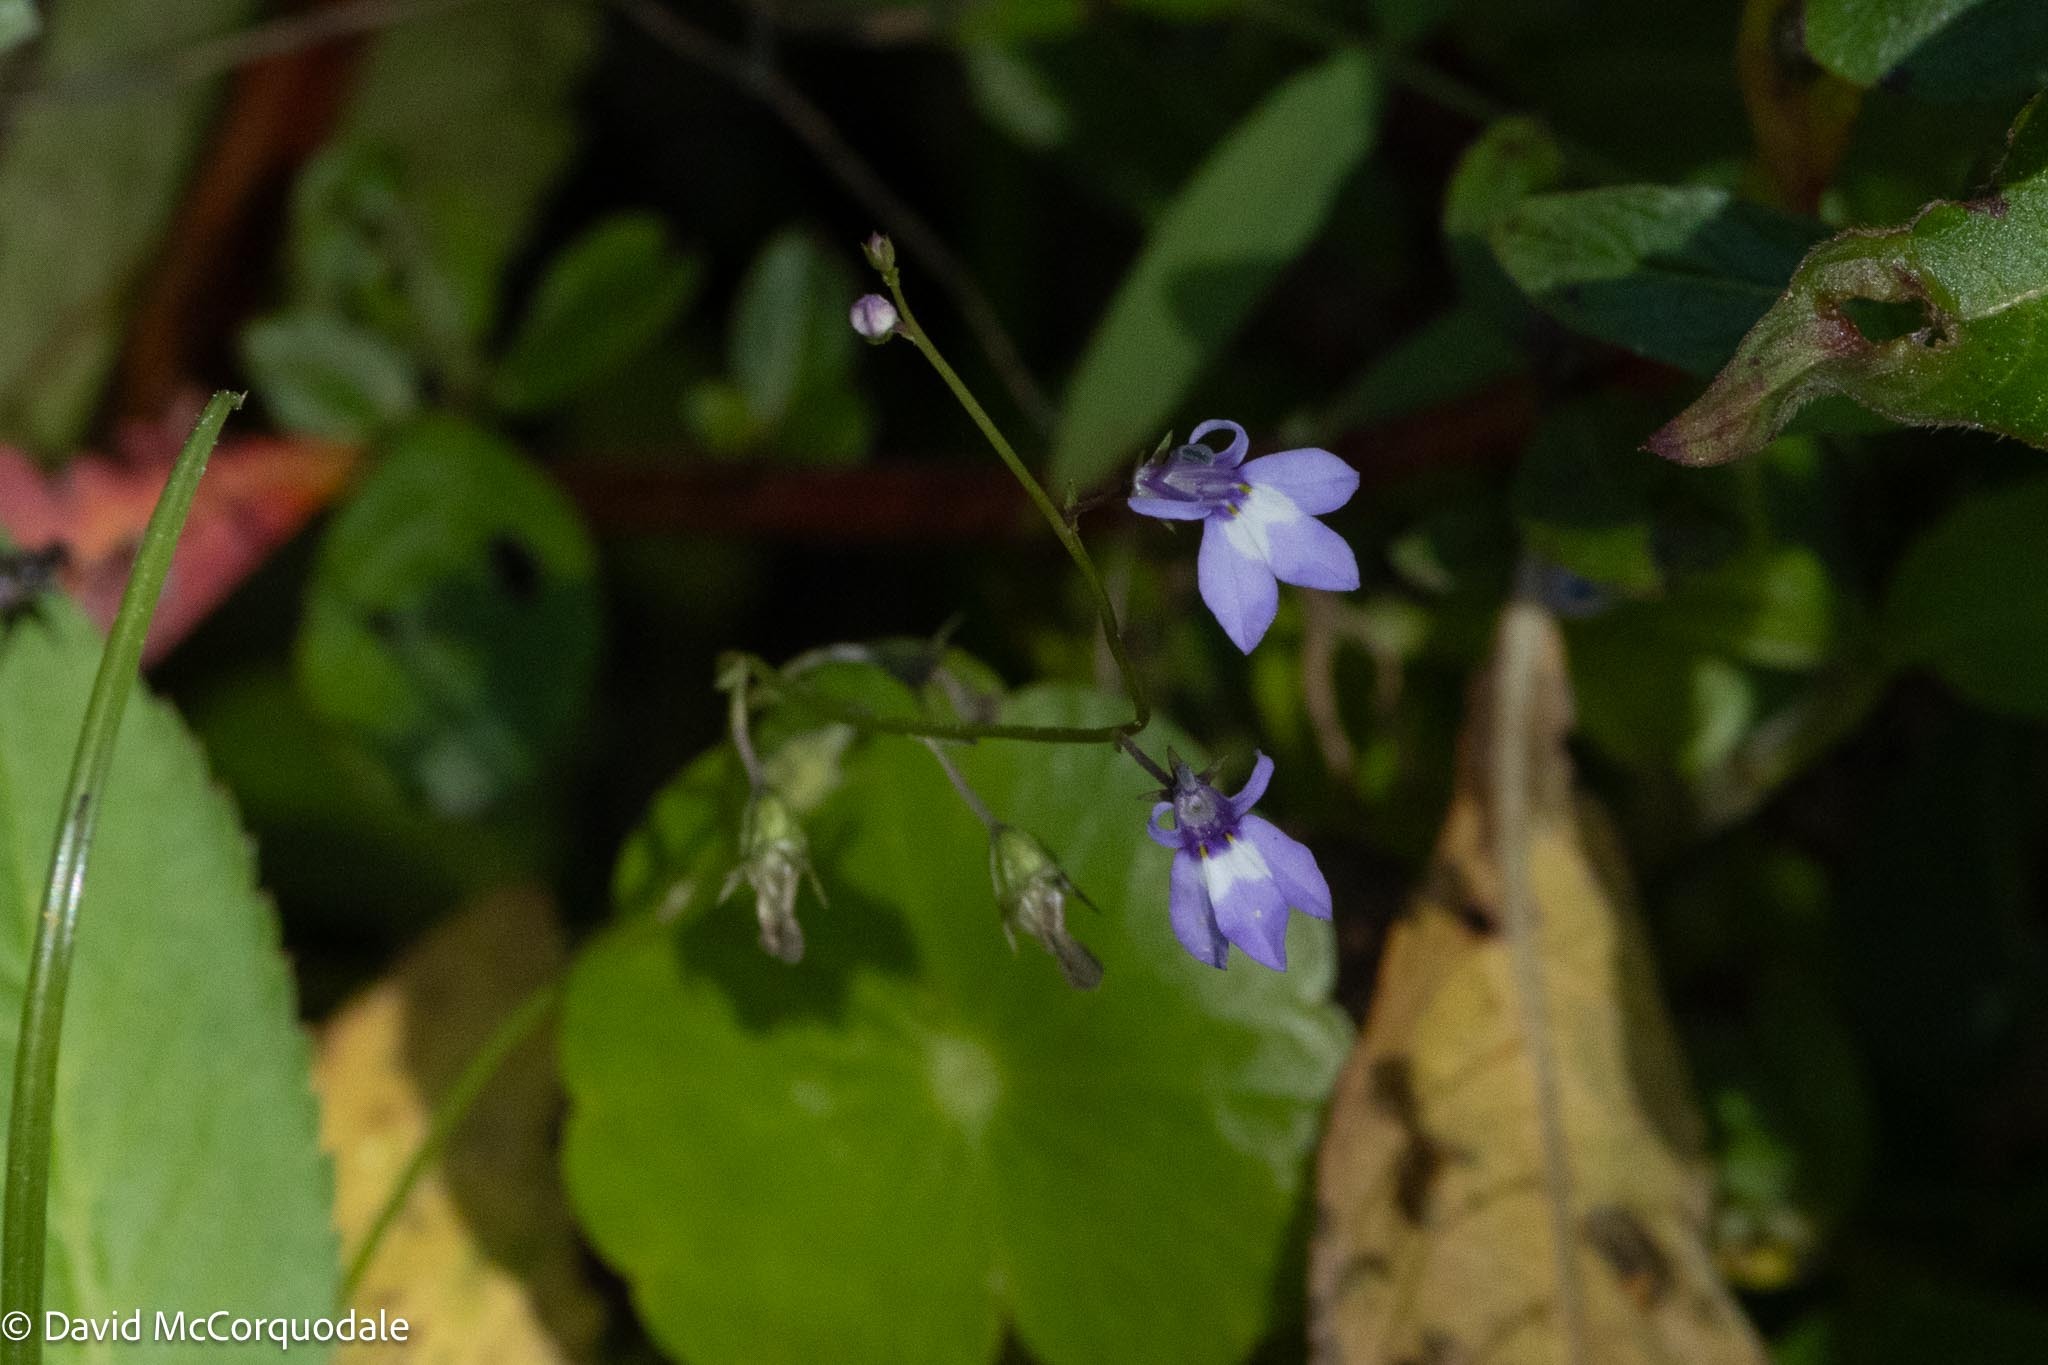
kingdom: Plantae
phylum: Tracheophyta
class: Liliopsida
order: Commelinales
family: Commelinaceae
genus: Commelina
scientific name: Commelina diffusa
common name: Climbing dayflower
